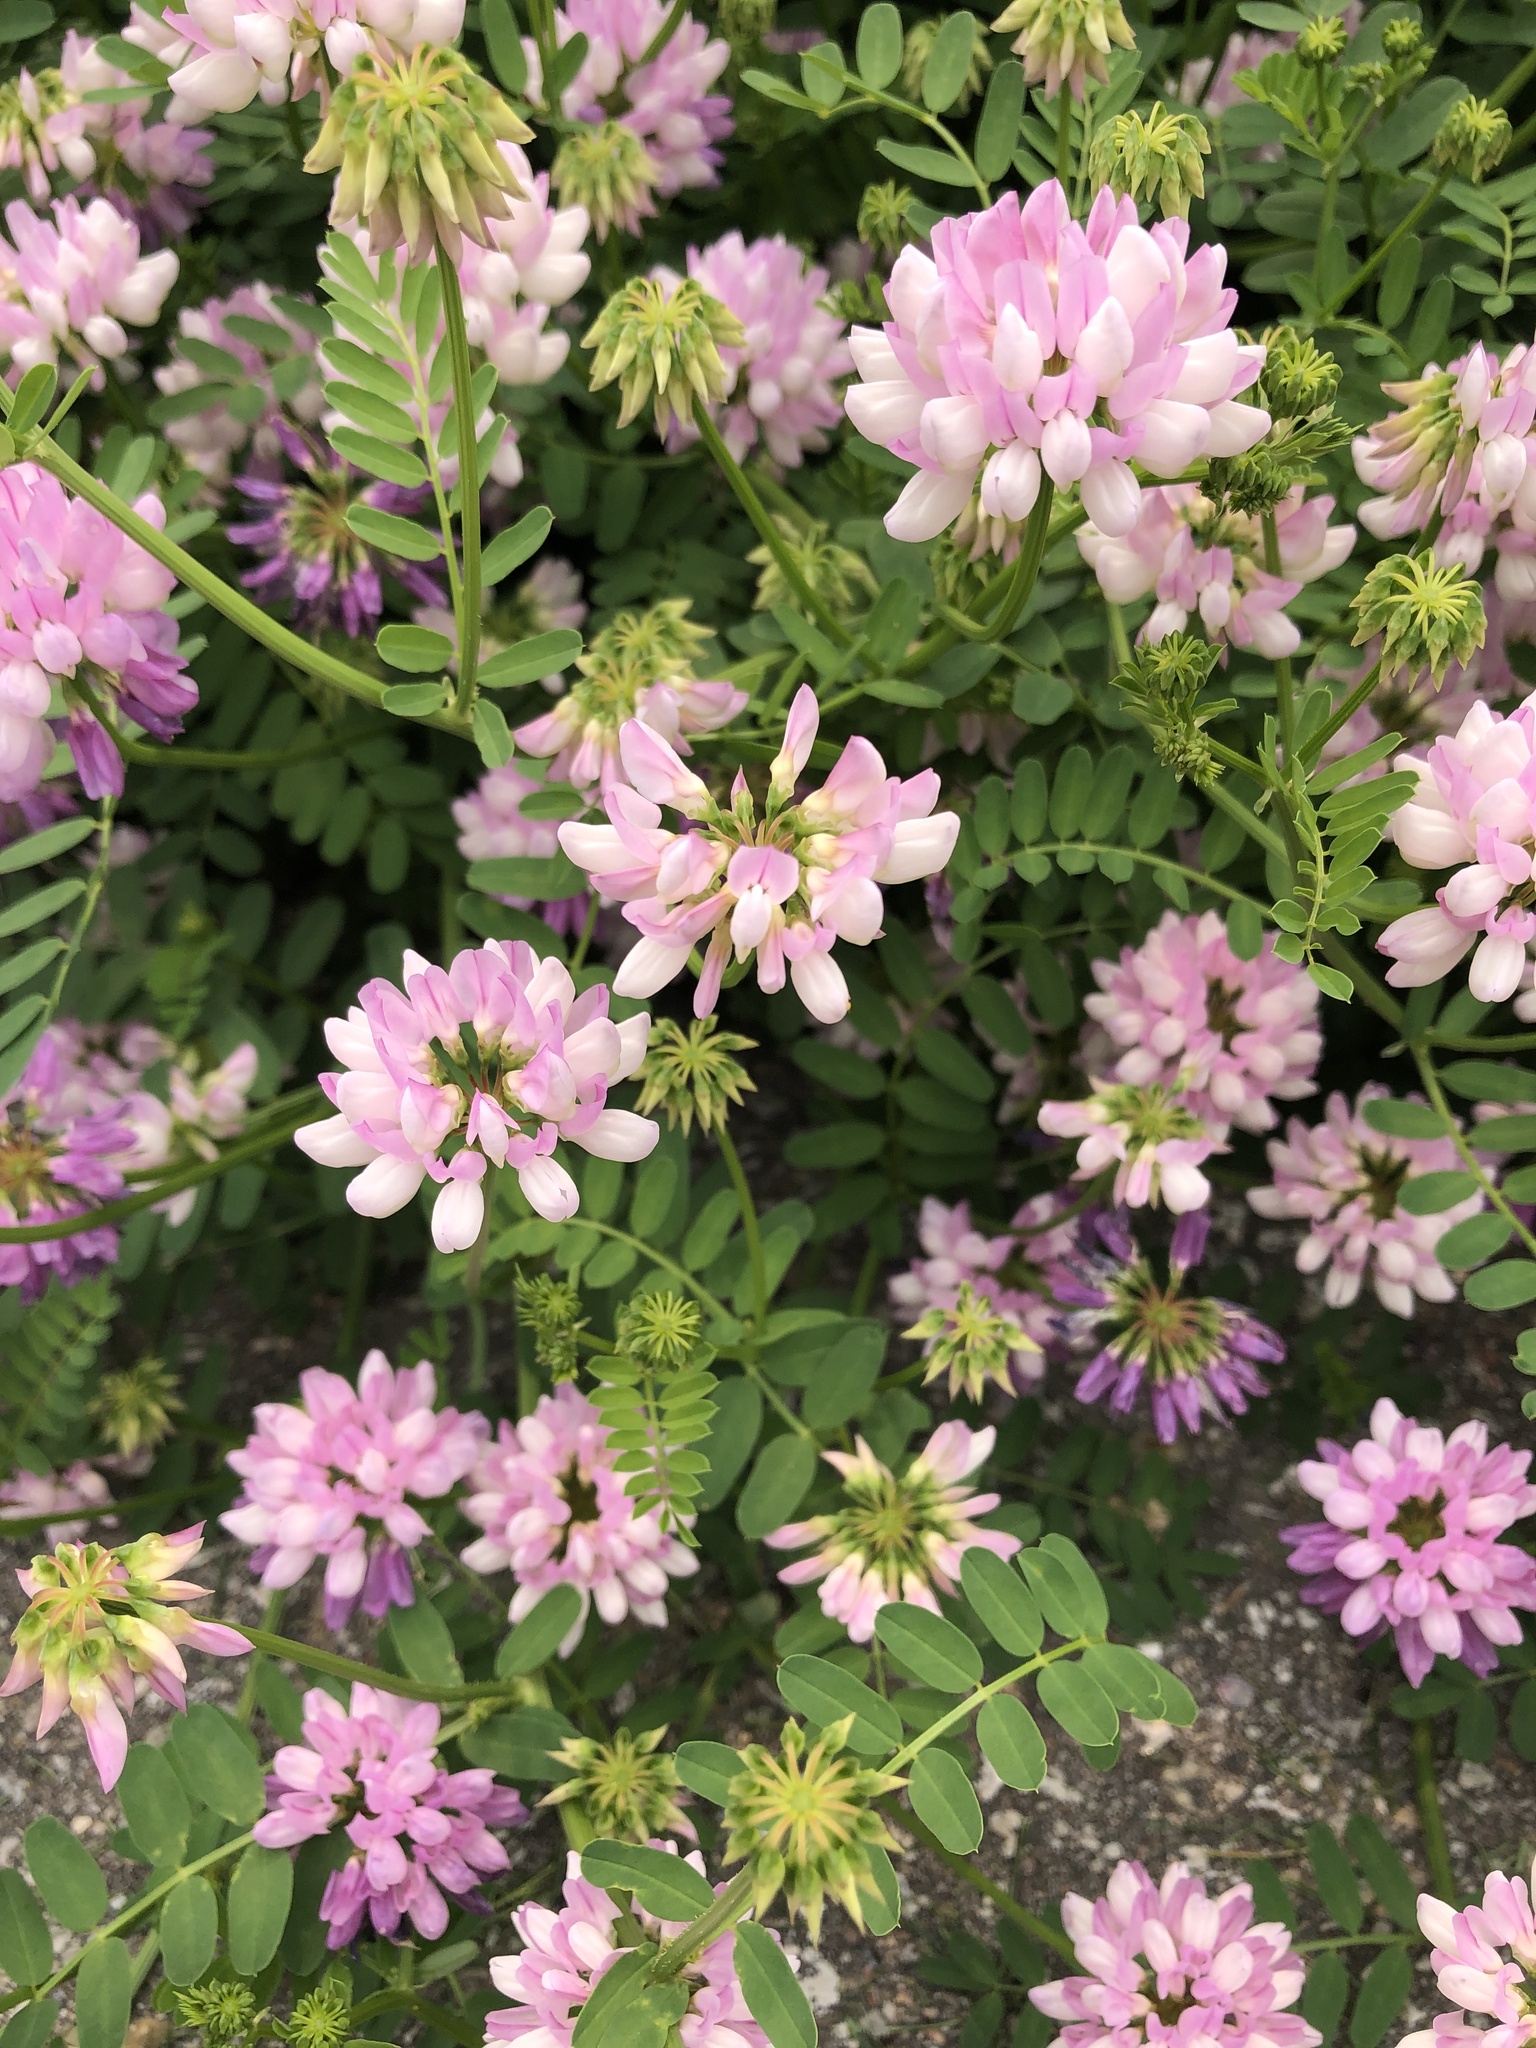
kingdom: Plantae
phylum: Tracheophyta
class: Magnoliopsida
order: Fabales
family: Fabaceae
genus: Coronilla
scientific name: Coronilla varia
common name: Crownvetch
